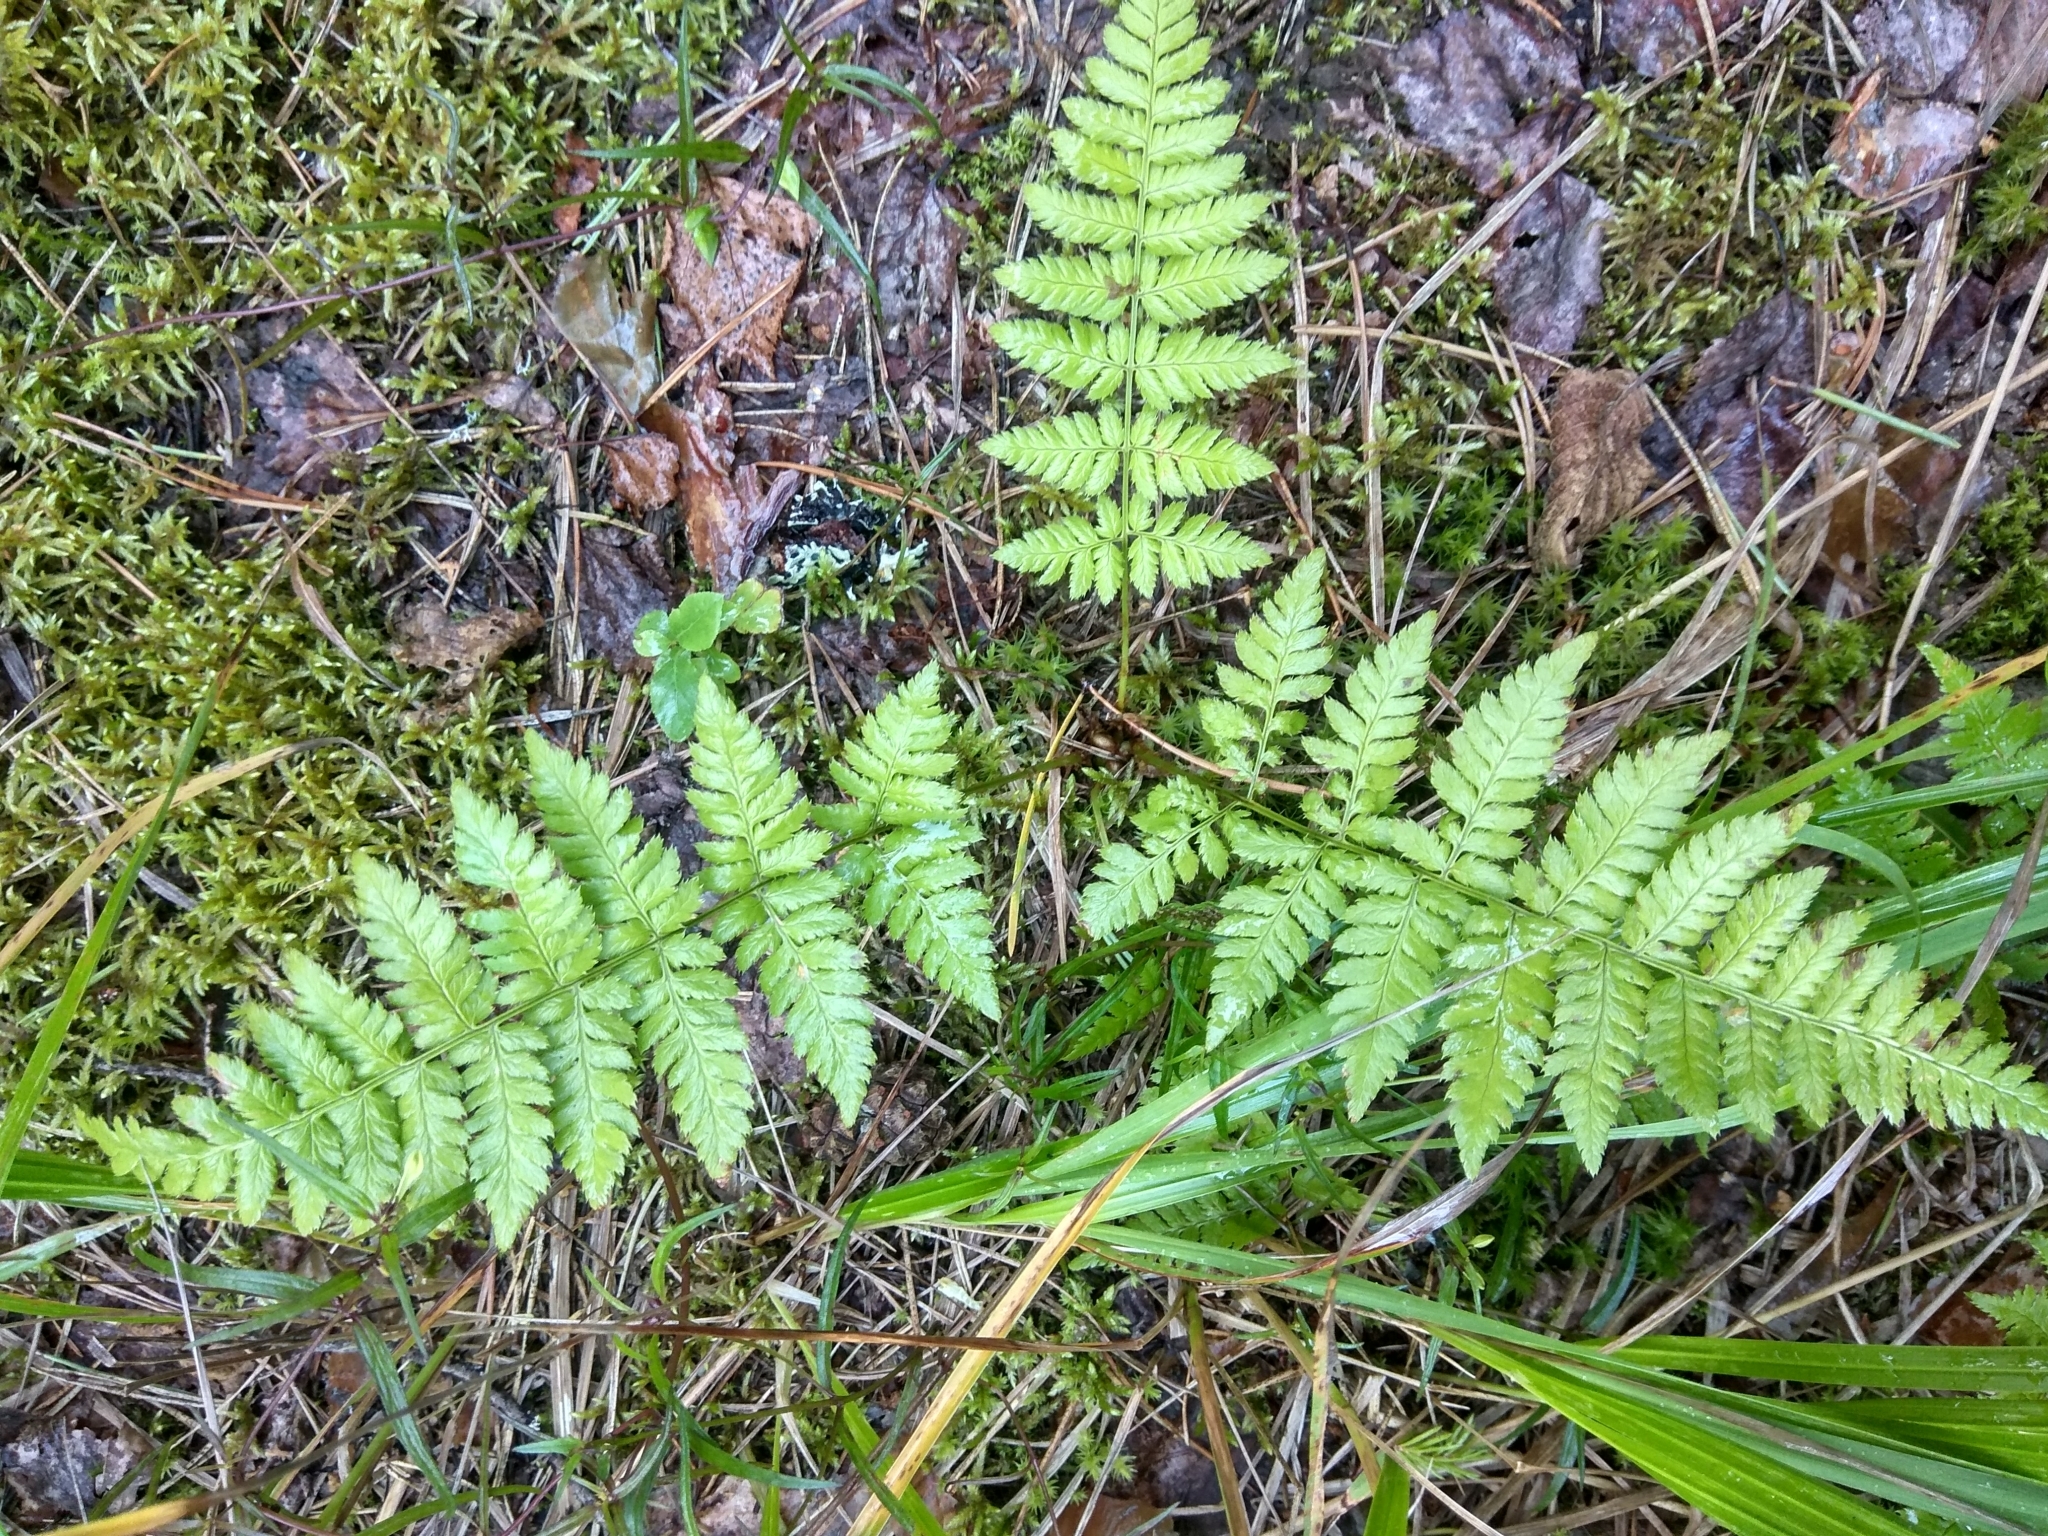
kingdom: Plantae
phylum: Tracheophyta
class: Polypodiopsida
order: Polypodiales
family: Dryopteridaceae
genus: Dryopteris
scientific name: Dryopteris carthusiana
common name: Narrow buckler-fern
